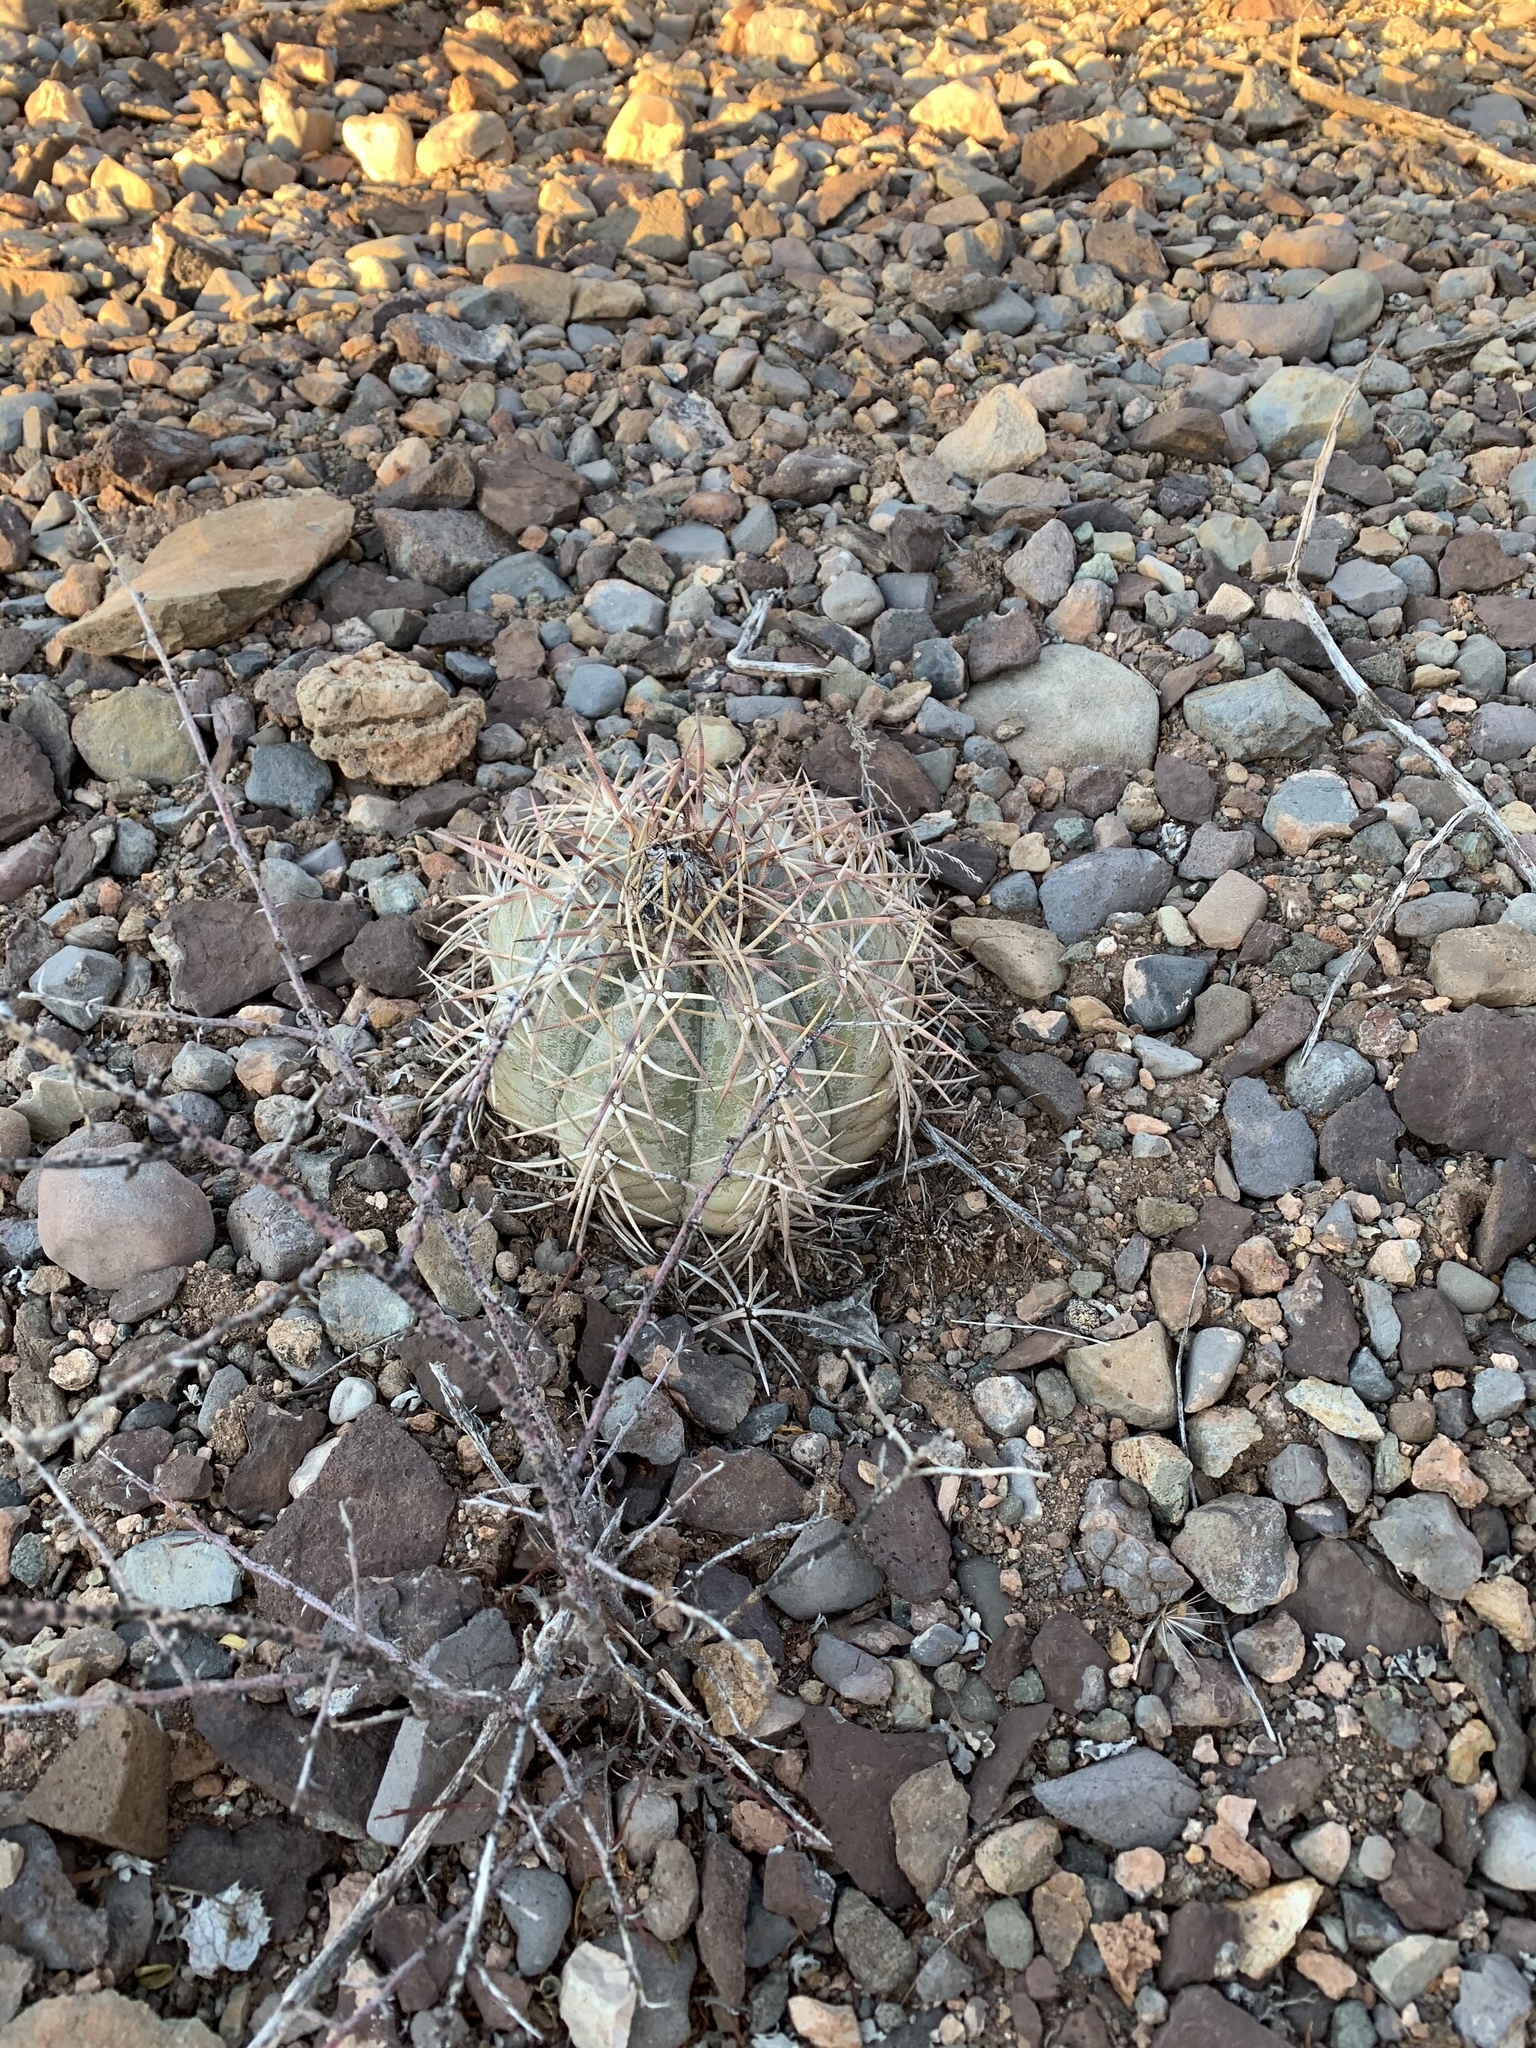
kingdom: Plantae
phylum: Tracheophyta
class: Magnoliopsida
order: Caryophyllales
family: Cactaceae
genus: Echinocactus
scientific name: Echinocactus horizonthalonius
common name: Devilshead
